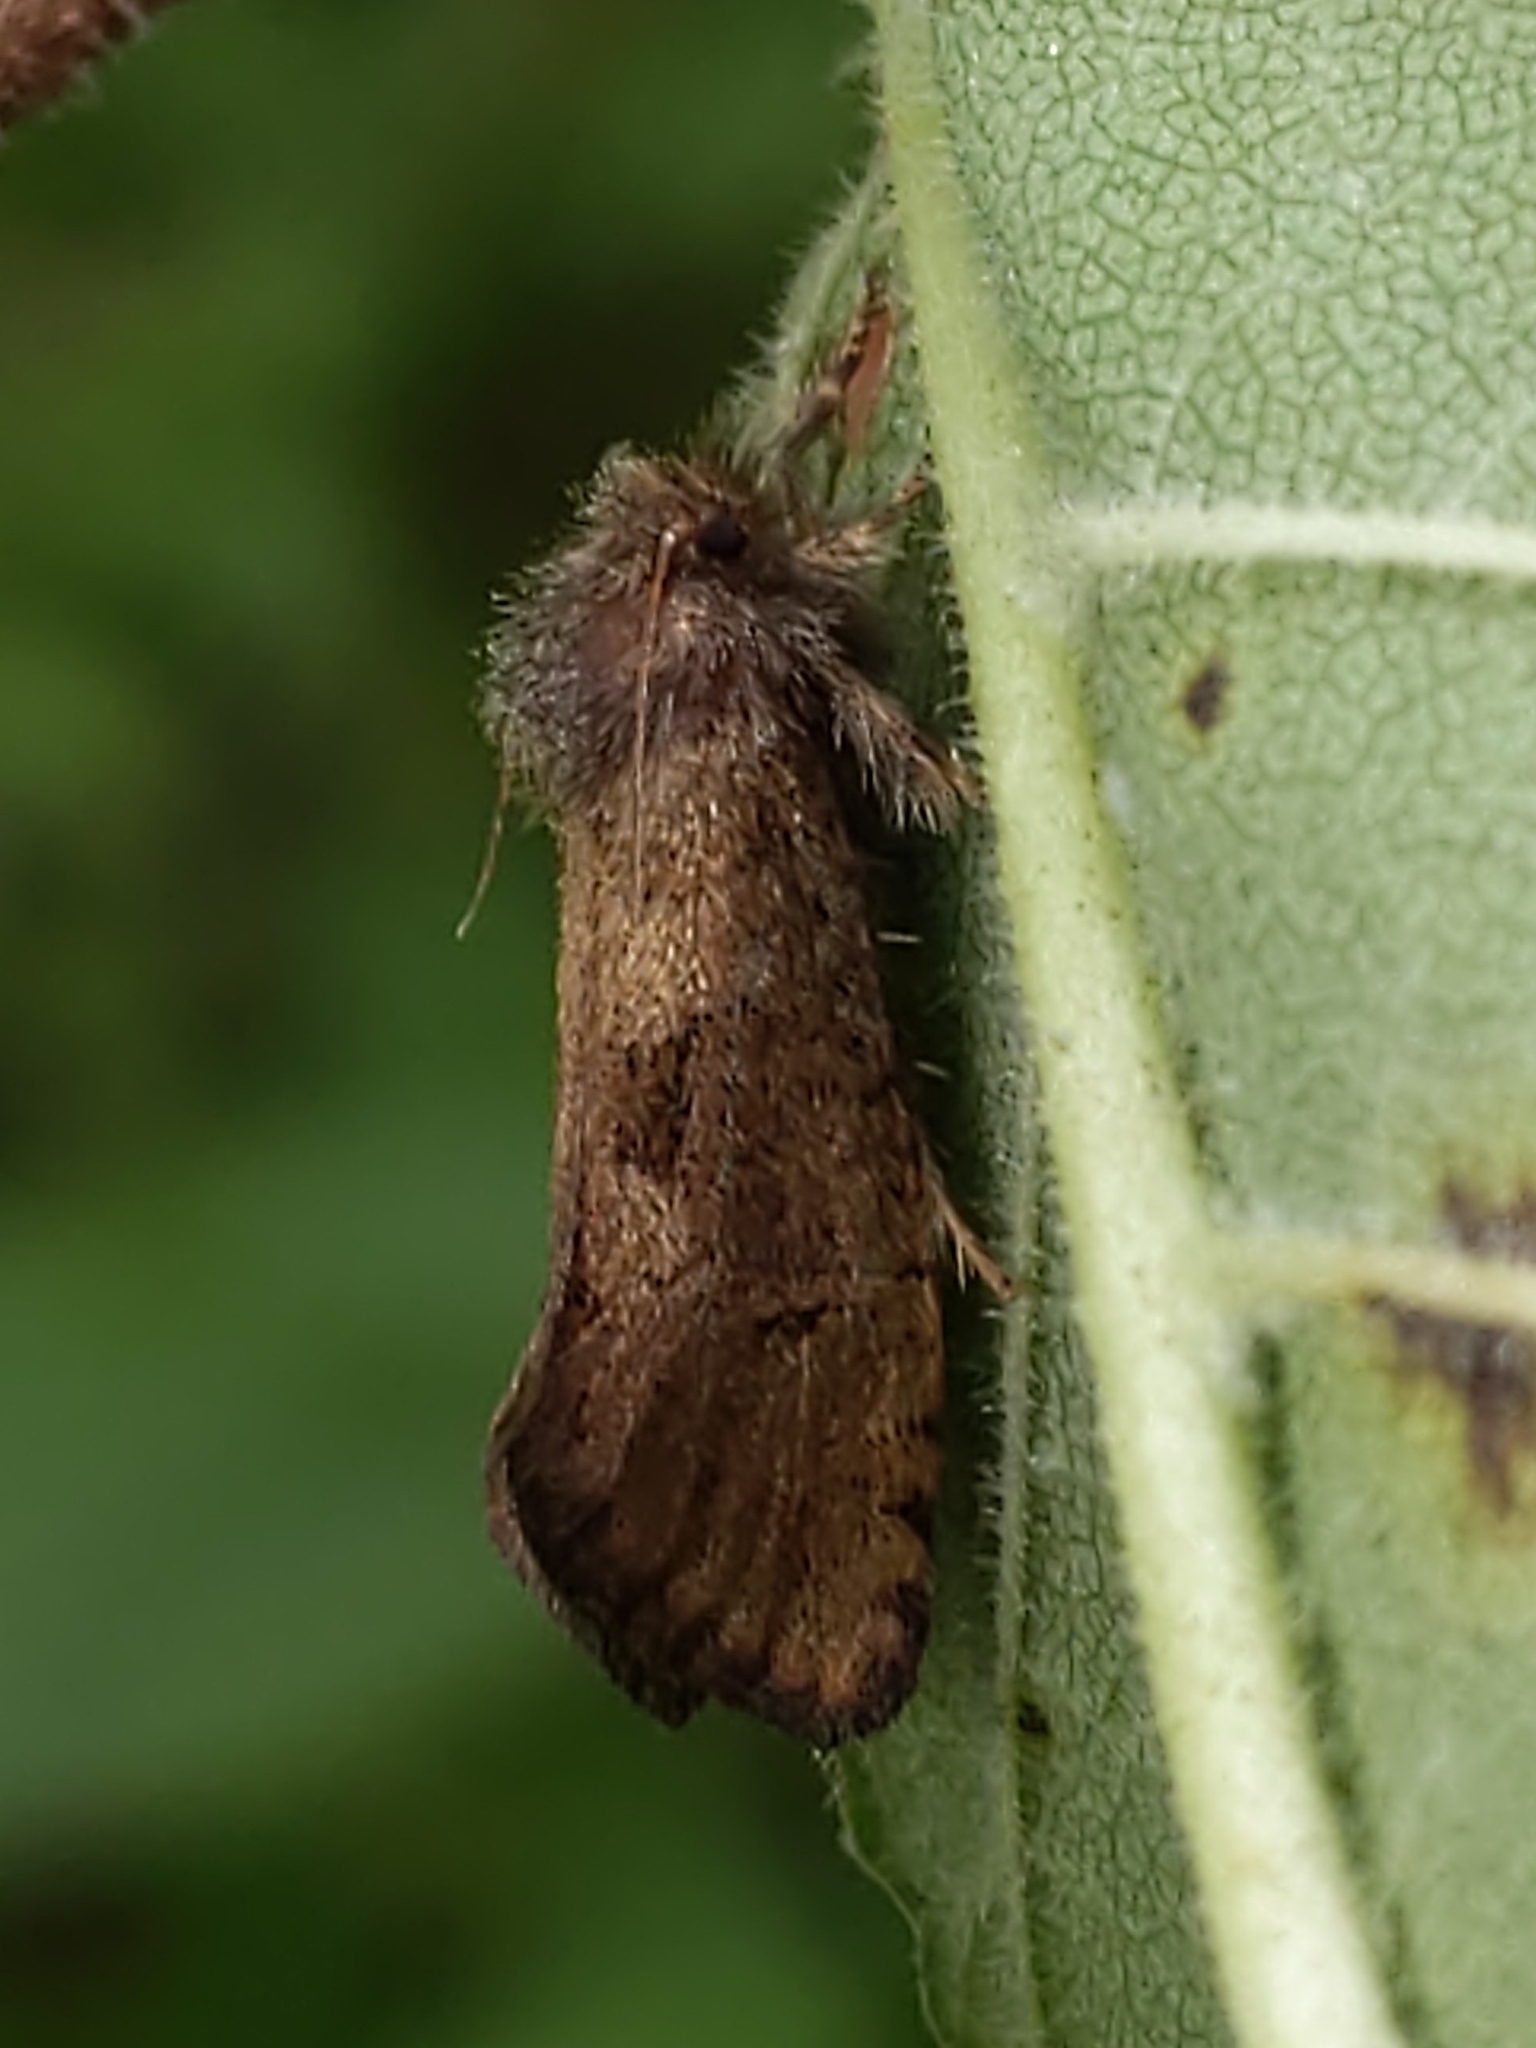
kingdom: Animalia
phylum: Arthropoda
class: Insecta
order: Lepidoptera
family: Tineidae
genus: Acrolophus
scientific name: Acrolophus mora
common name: Dark acrolophus
